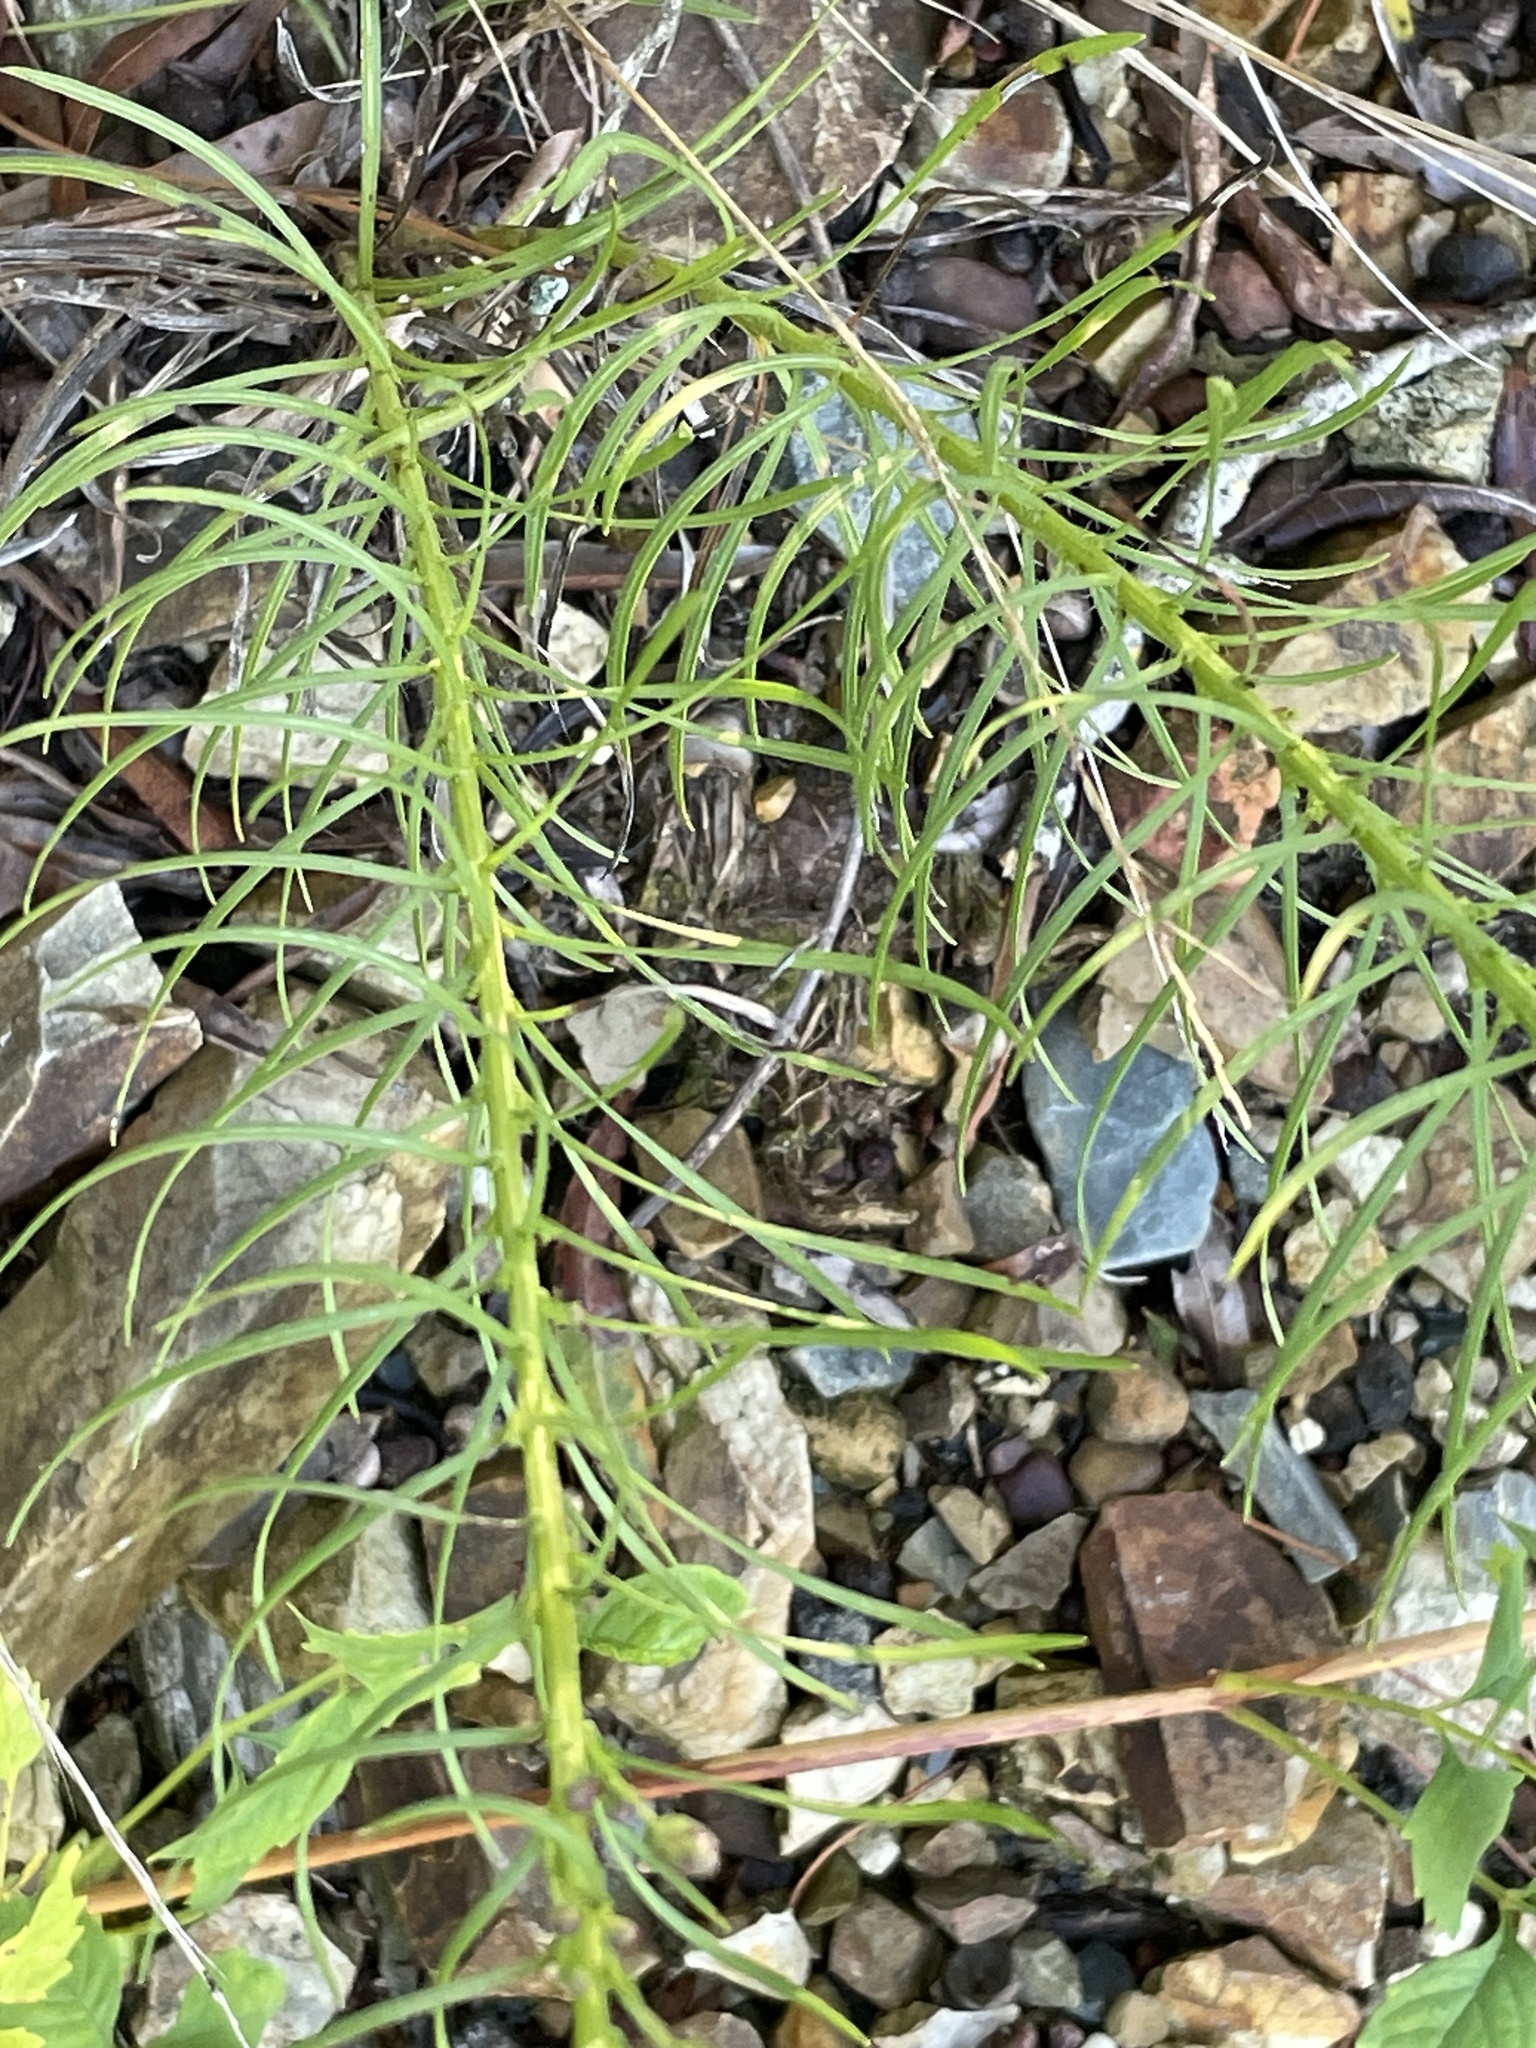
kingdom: Plantae
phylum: Tracheophyta
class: Magnoliopsida
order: Asterales
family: Asteraceae
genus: Liatris
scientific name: Liatris pilosa
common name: Grass-leaf gayfeather
